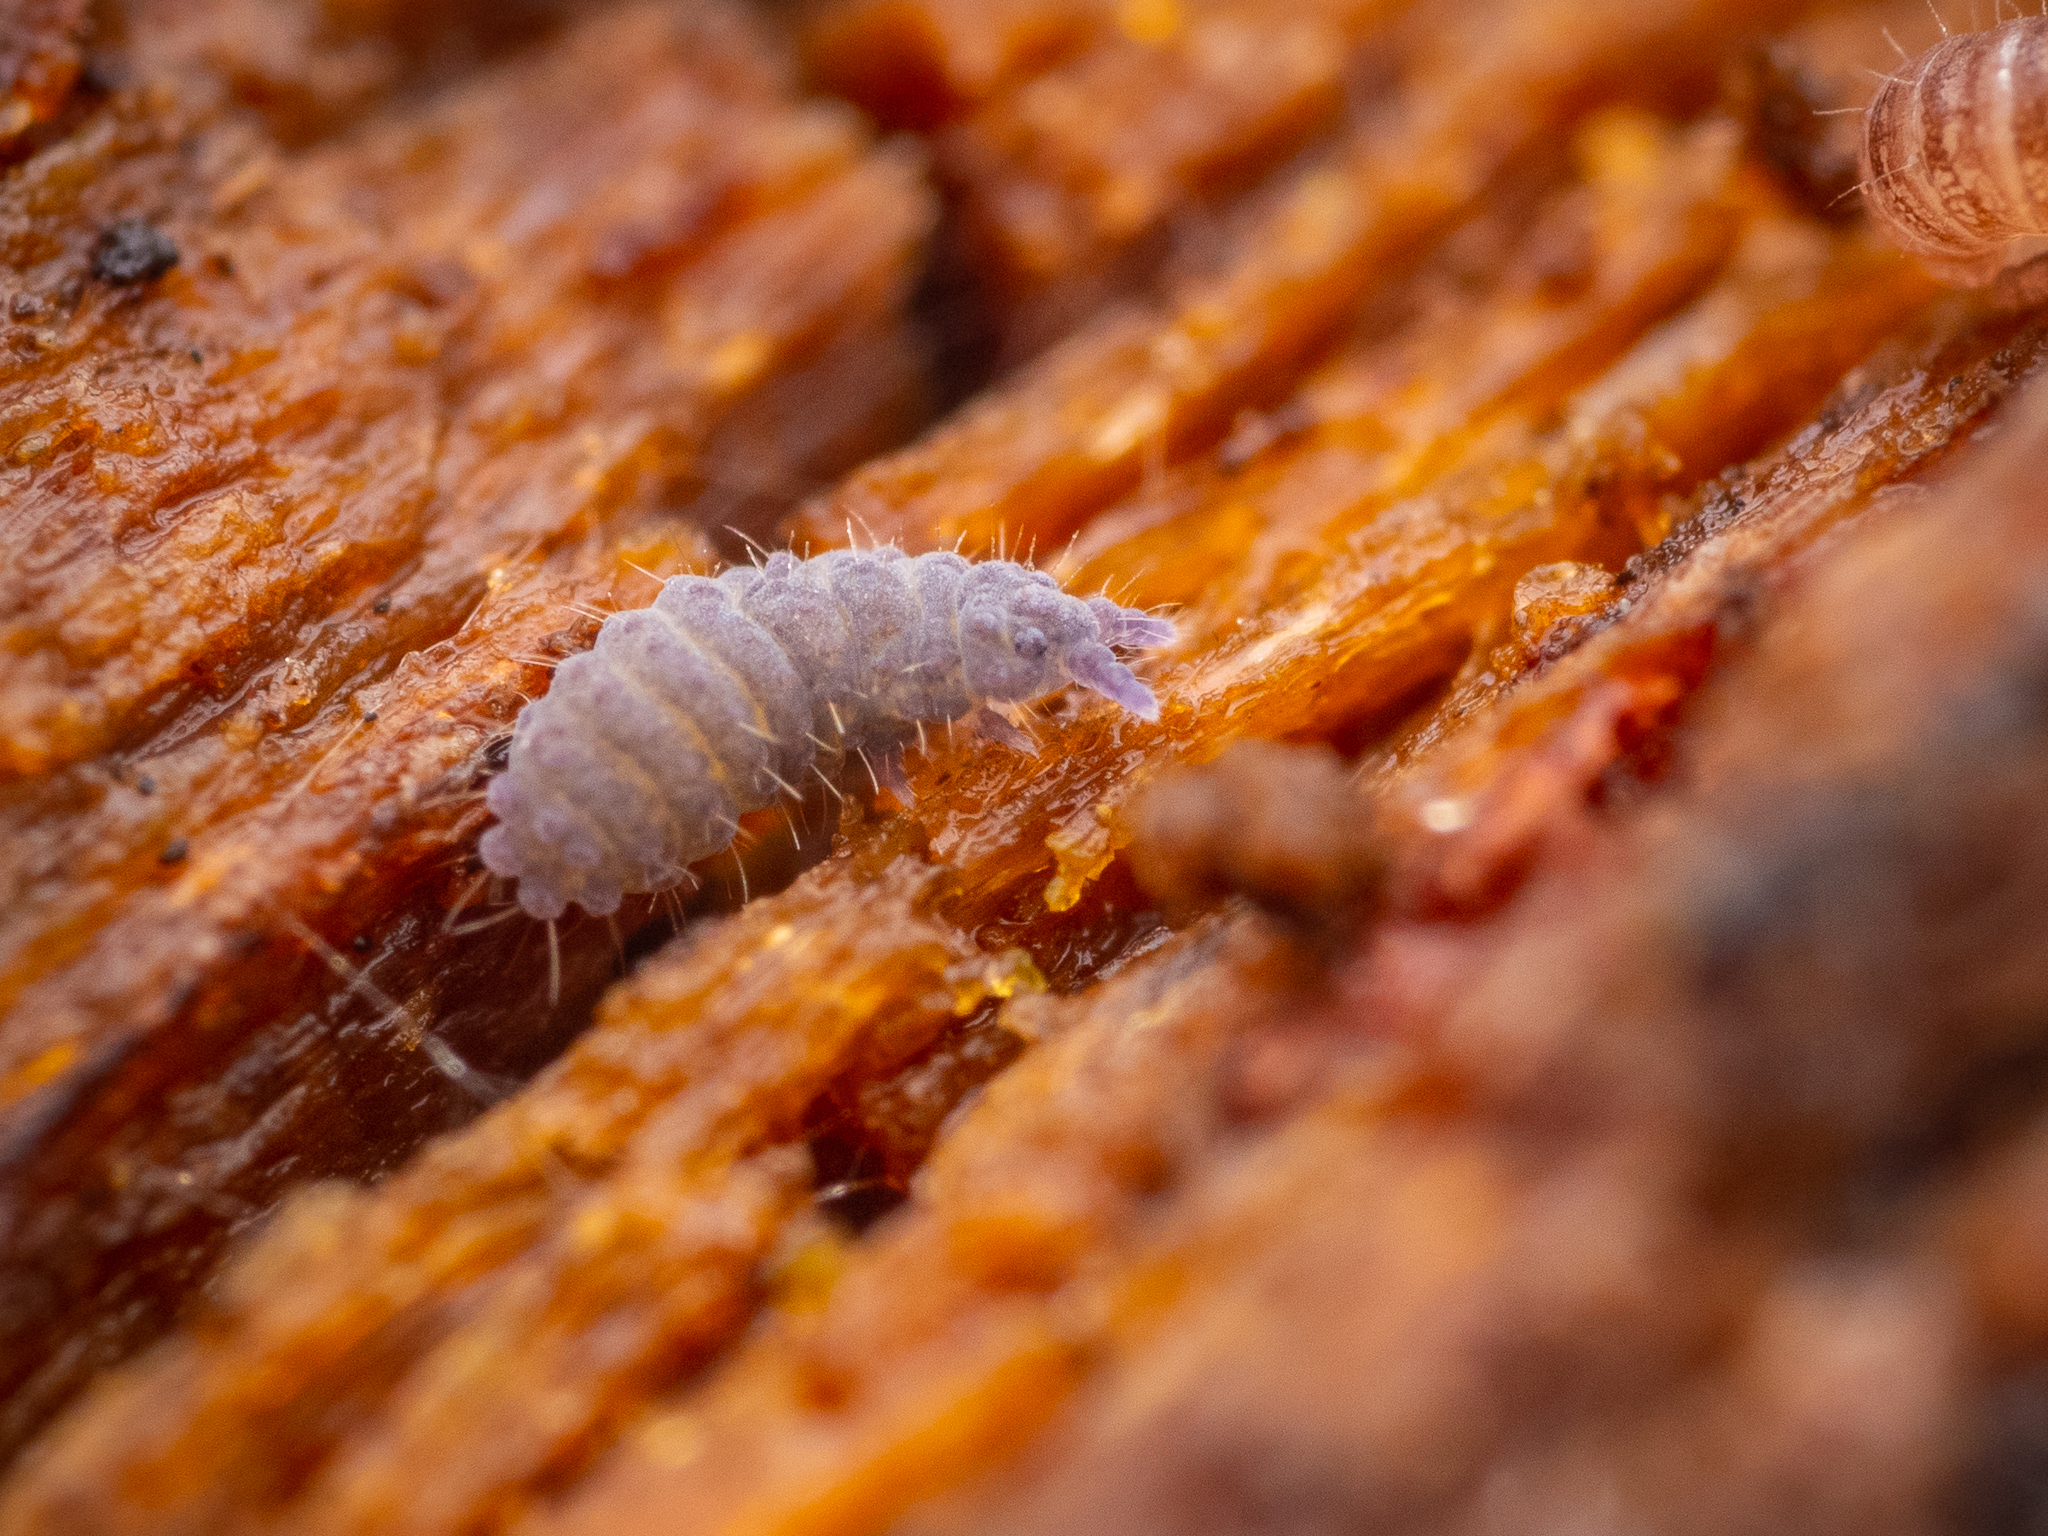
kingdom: Animalia
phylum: Arthropoda
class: Collembola
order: Poduromorpha
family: Neanuridae
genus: Neanura
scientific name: Neanura muscorum
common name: Springtail
